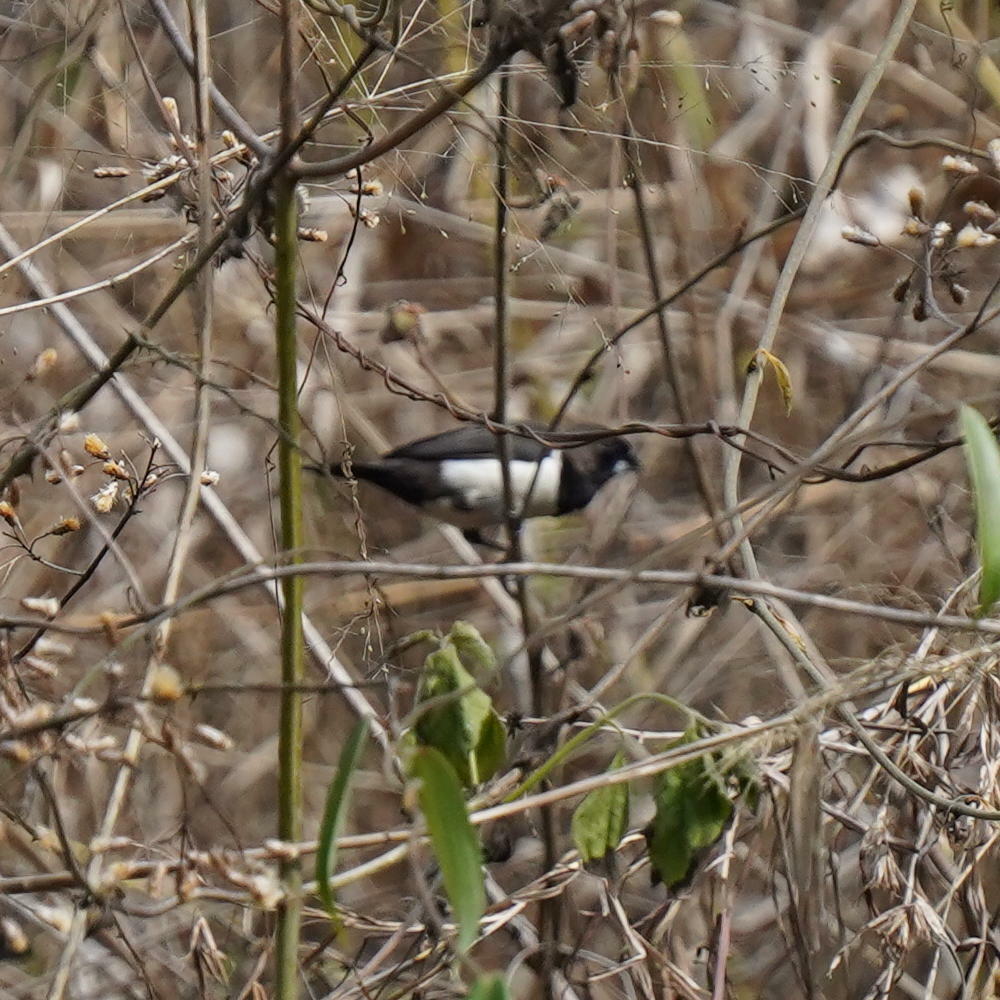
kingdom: Animalia
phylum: Chordata
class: Aves
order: Passeriformes
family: Estrildidae
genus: Lonchura
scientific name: Lonchura striata
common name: White-rumped munia
